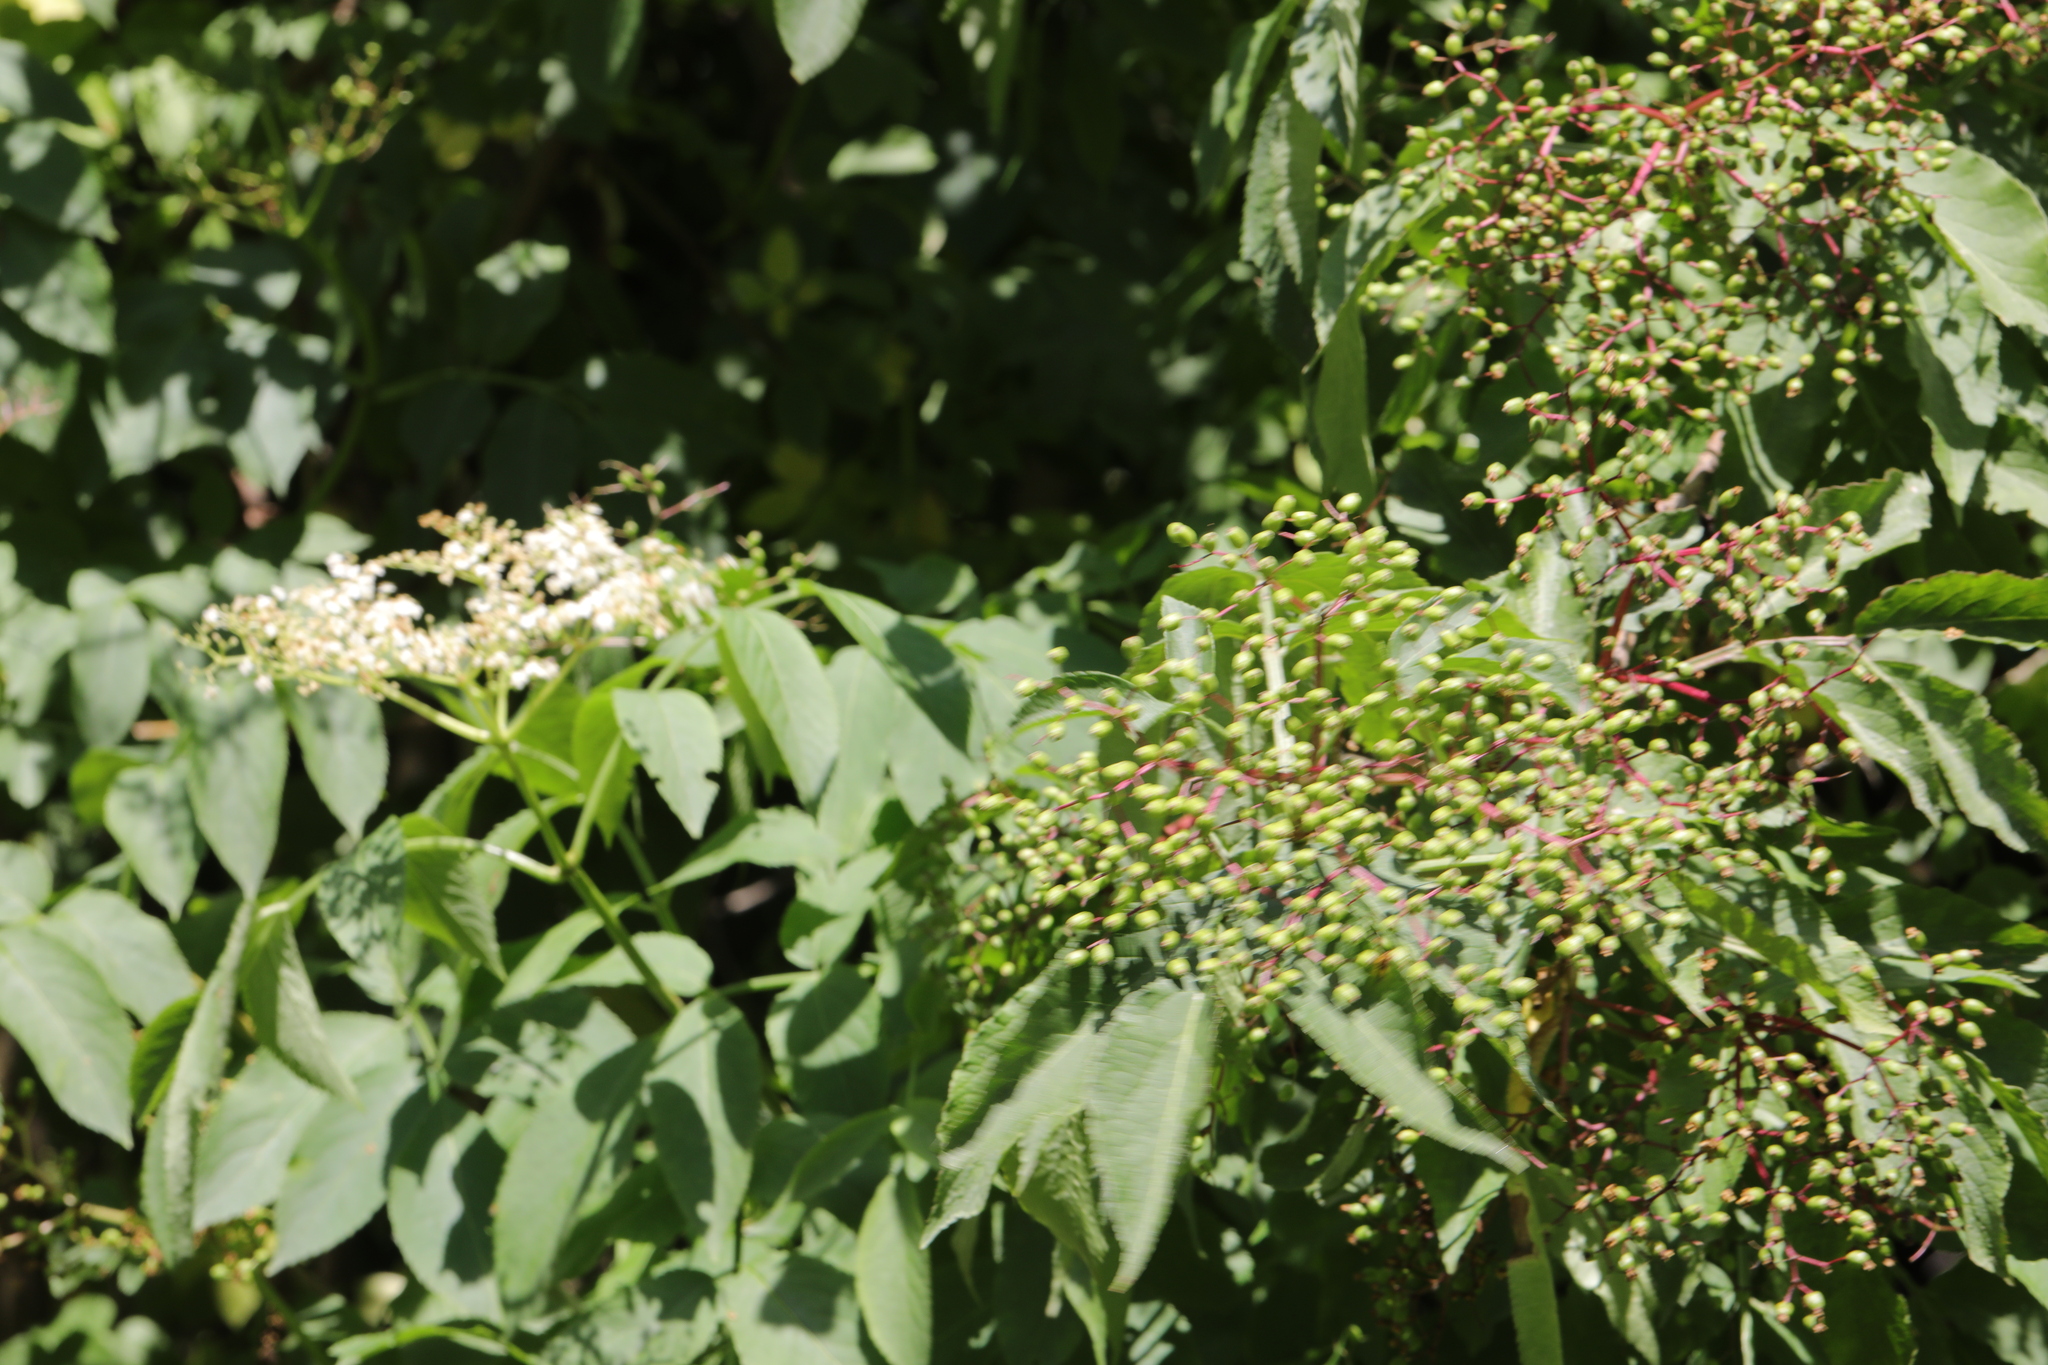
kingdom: Plantae
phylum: Tracheophyta
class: Magnoliopsida
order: Dipsacales
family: Viburnaceae
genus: Sambucus
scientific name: Sambucus nigra
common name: Elder
